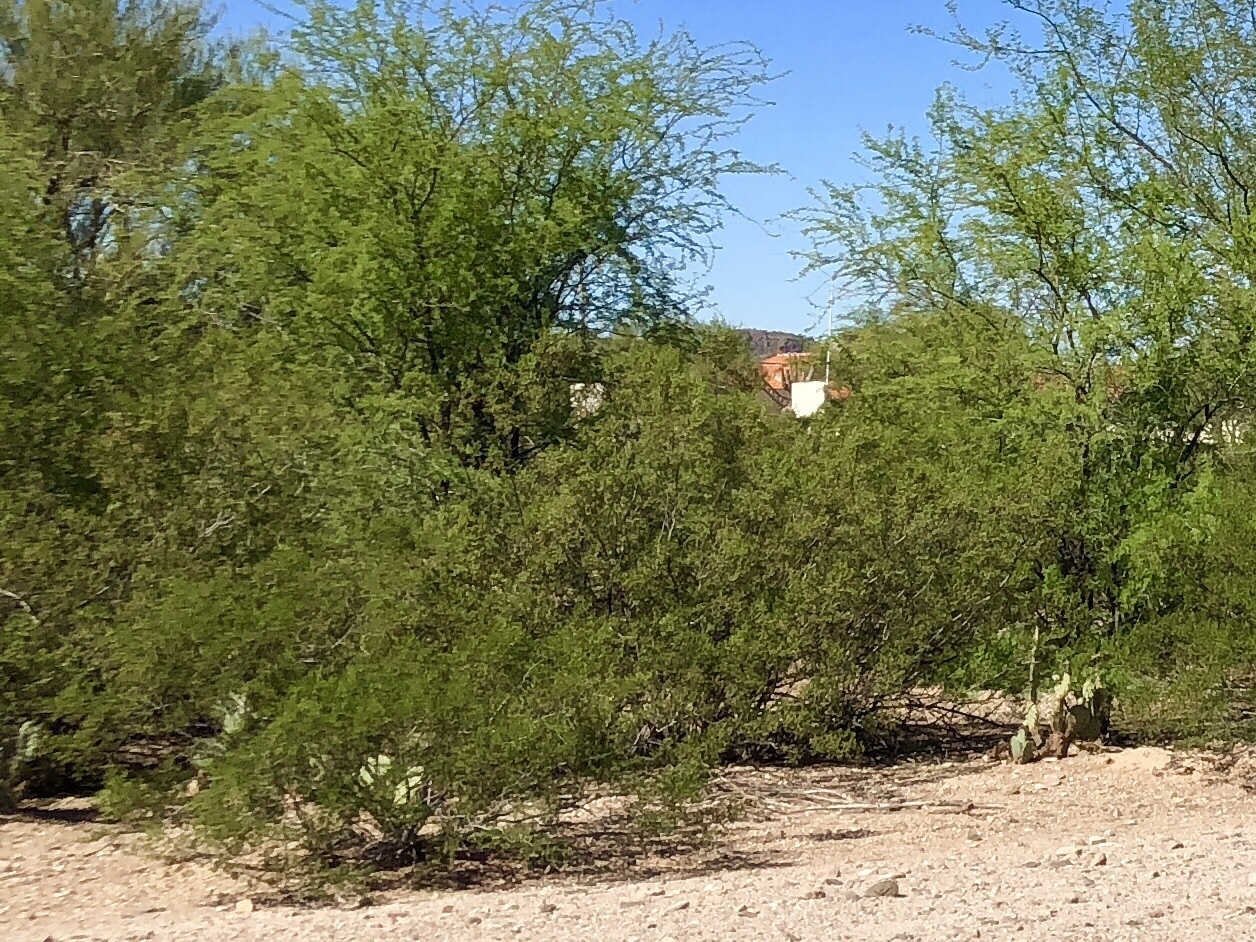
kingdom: Plantae
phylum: Tracheophyta
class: Magnoliopsida
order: Zygophyllales
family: Zygophyllaceae
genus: Larrea
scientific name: Larrea tridentata
